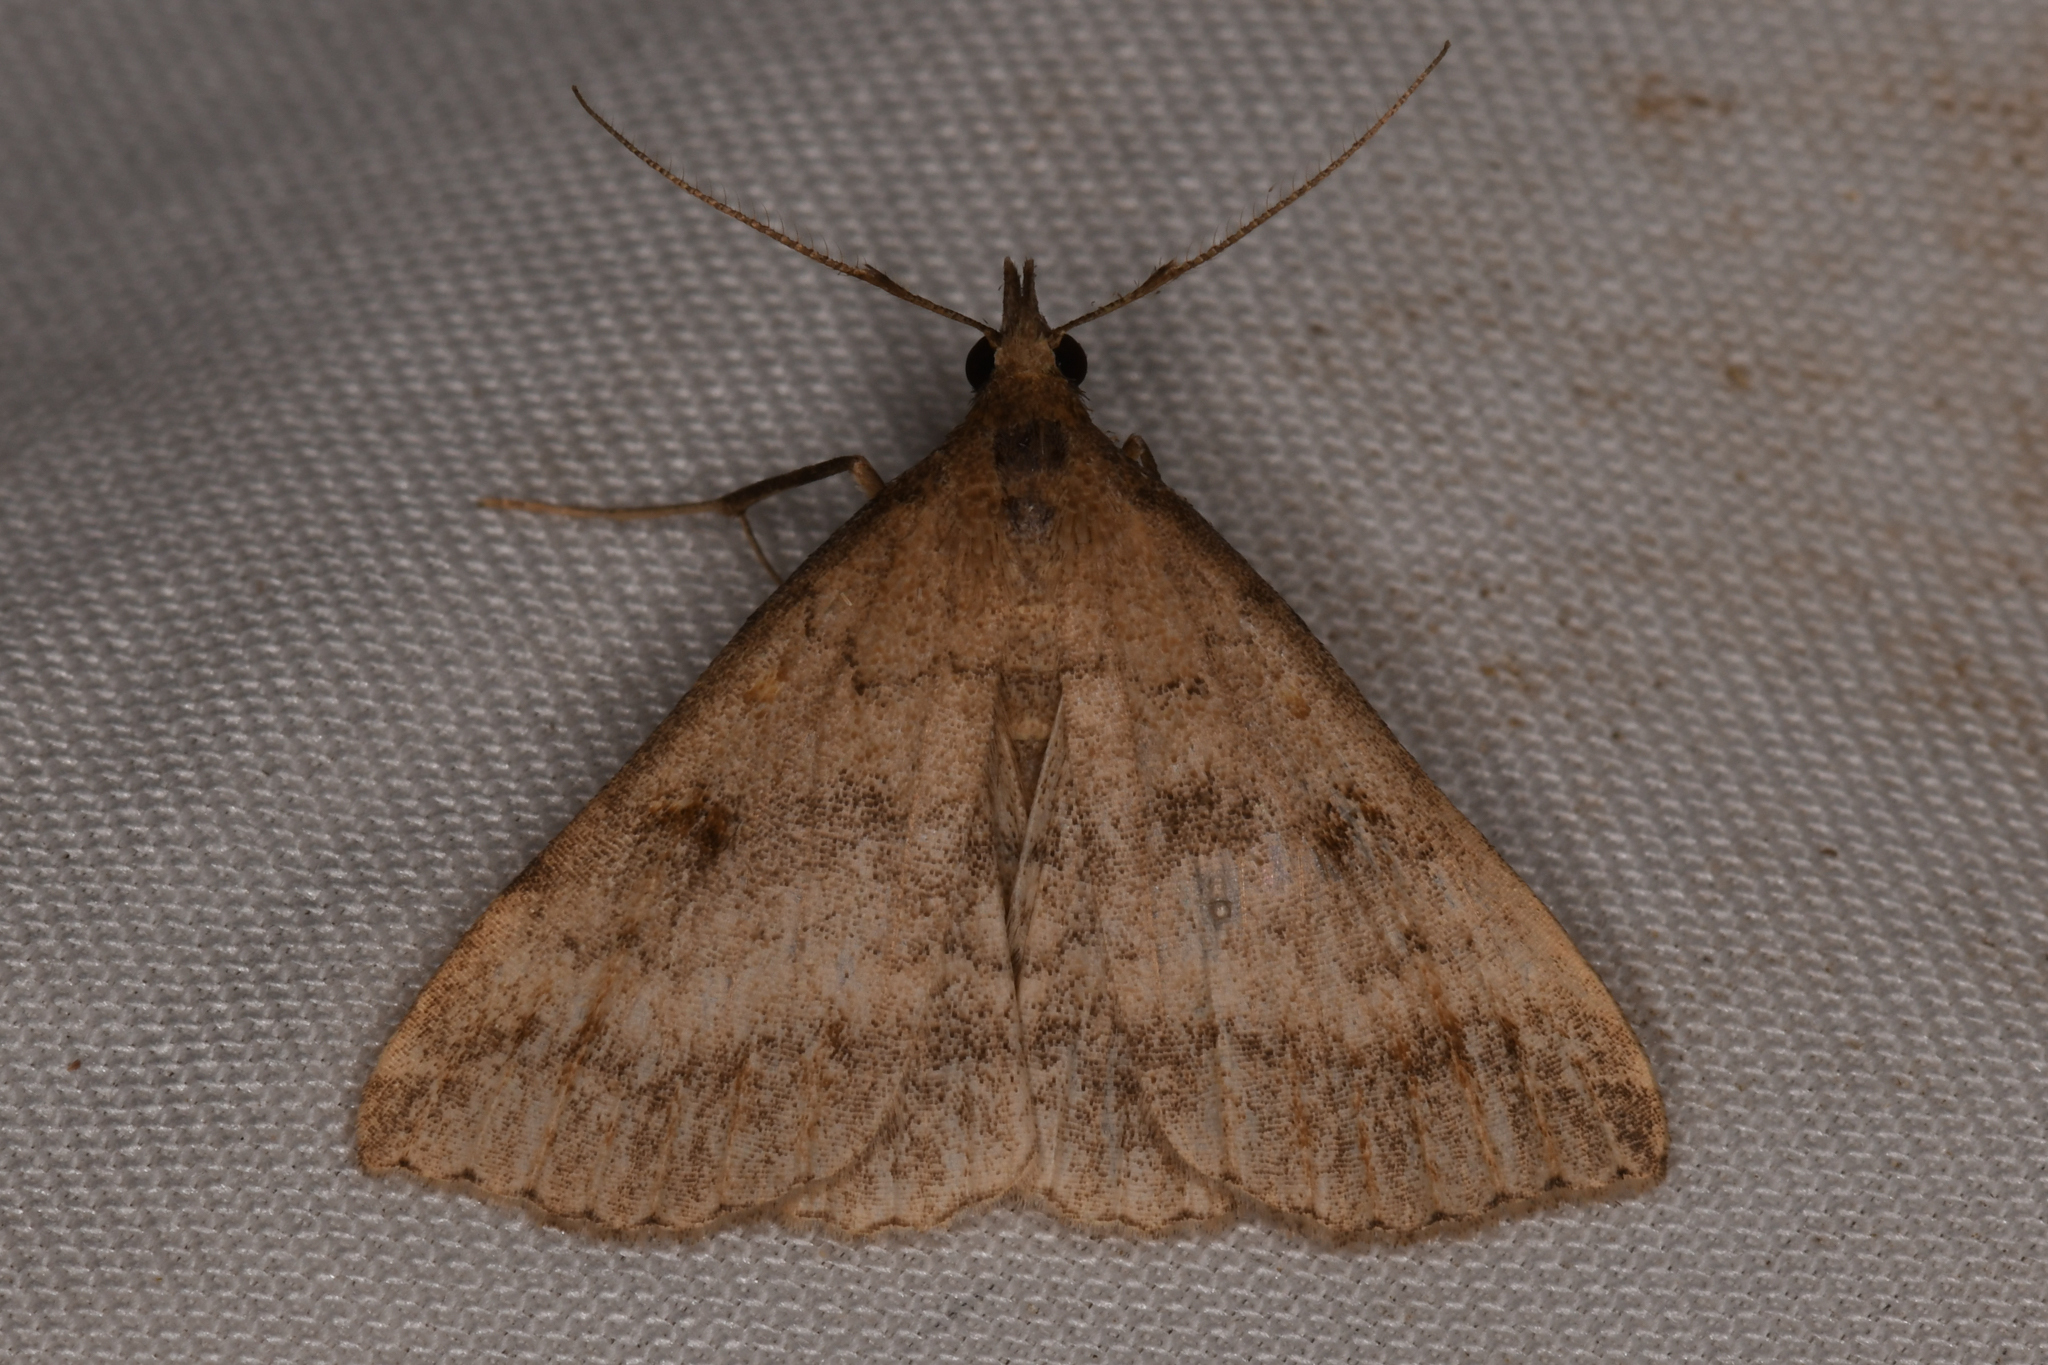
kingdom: Animalia
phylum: Arthropoda
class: Insecta
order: Lepidoptera
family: Erebidae
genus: Tetanolita
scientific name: Tetanolita palligera
